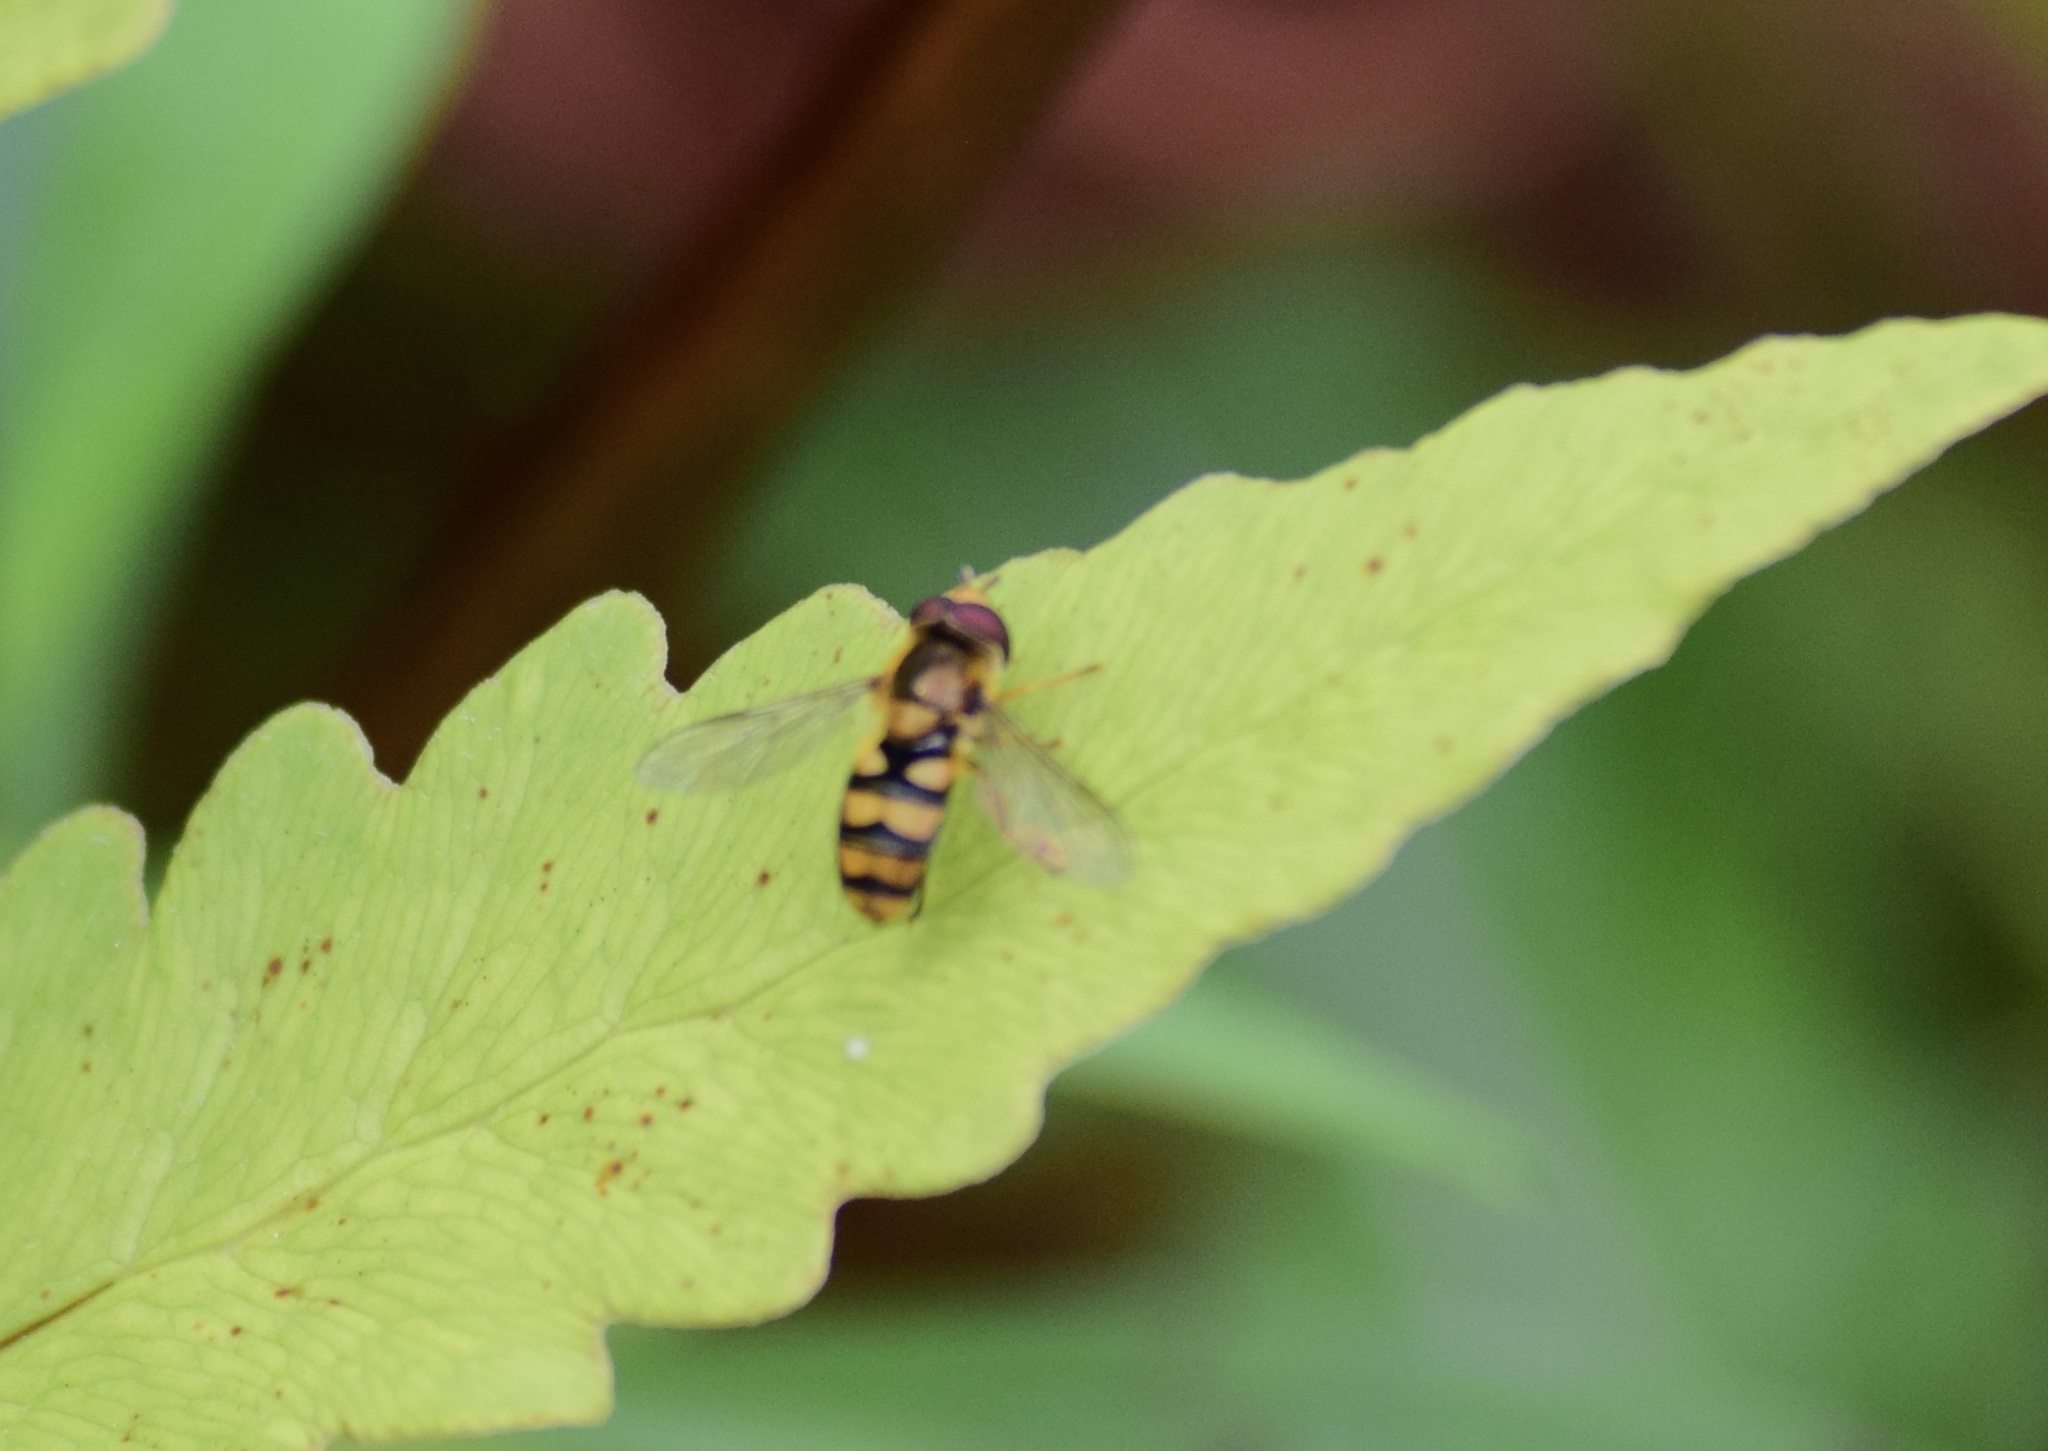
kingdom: Animalia
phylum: Arthropoda
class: Insecta
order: Diptera
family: Syrphidae
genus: Eupeodes
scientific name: Eupeodes latifasciatus
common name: Variable aphideater
